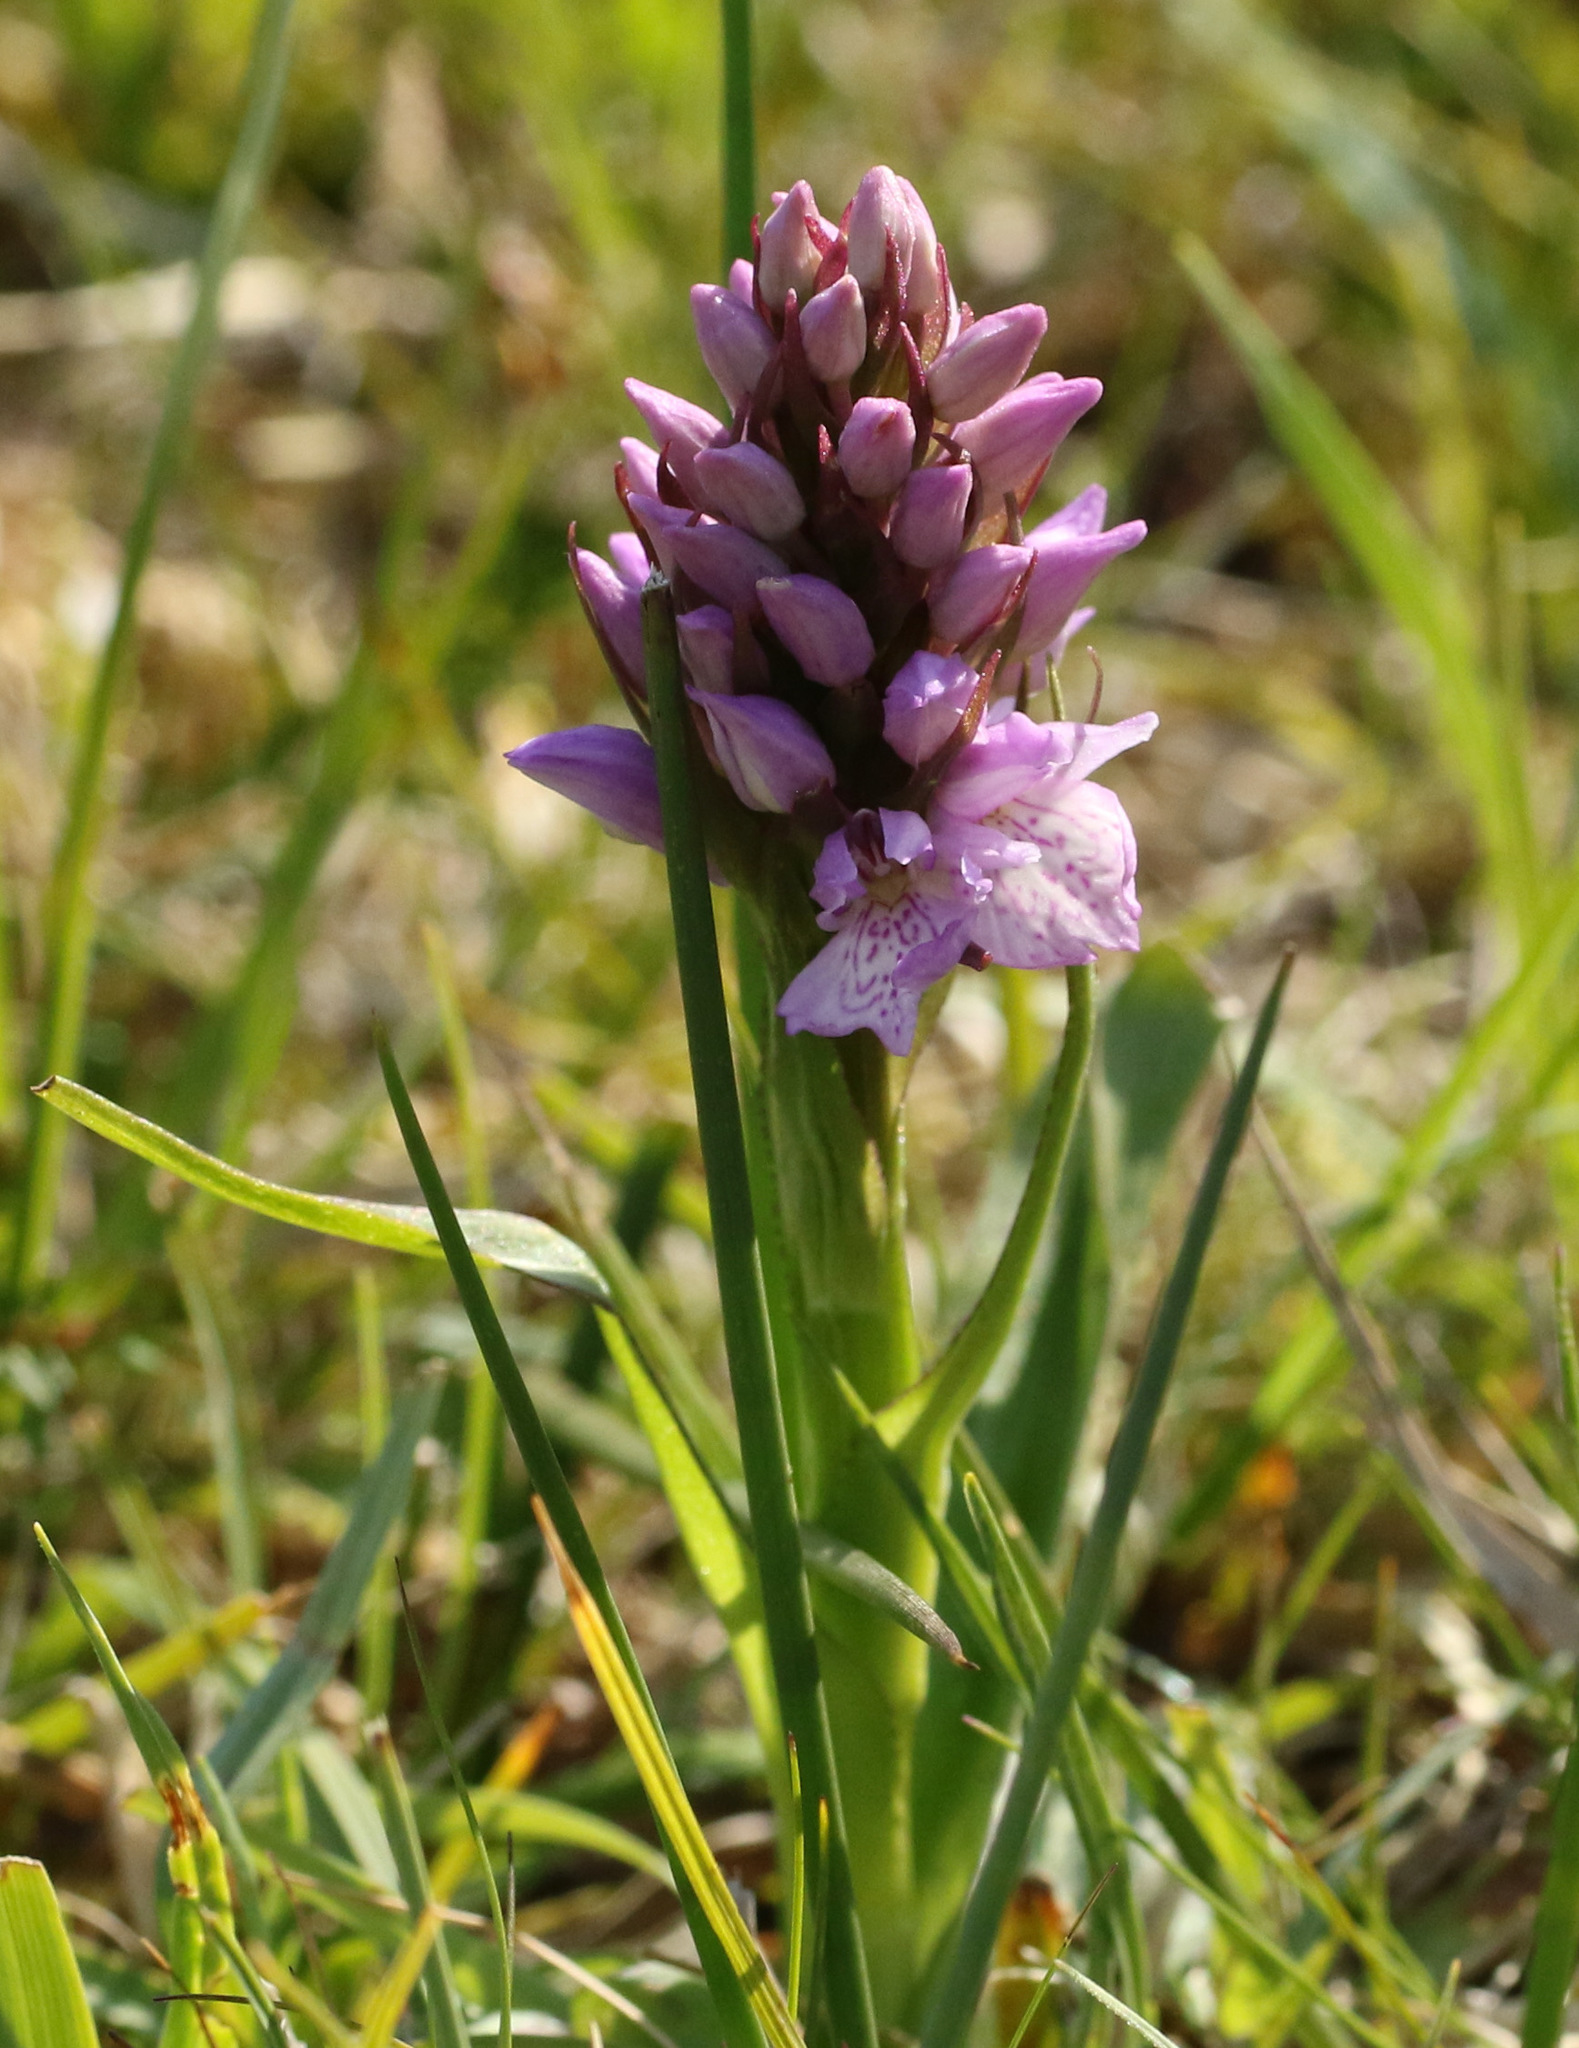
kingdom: Plantae
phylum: Tracheophyta
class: Liliopsida
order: Asparagales
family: Orchidaceae
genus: Dactylorhiza
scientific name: Dactylorhiza maculata
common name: Heath spotted-orchid
